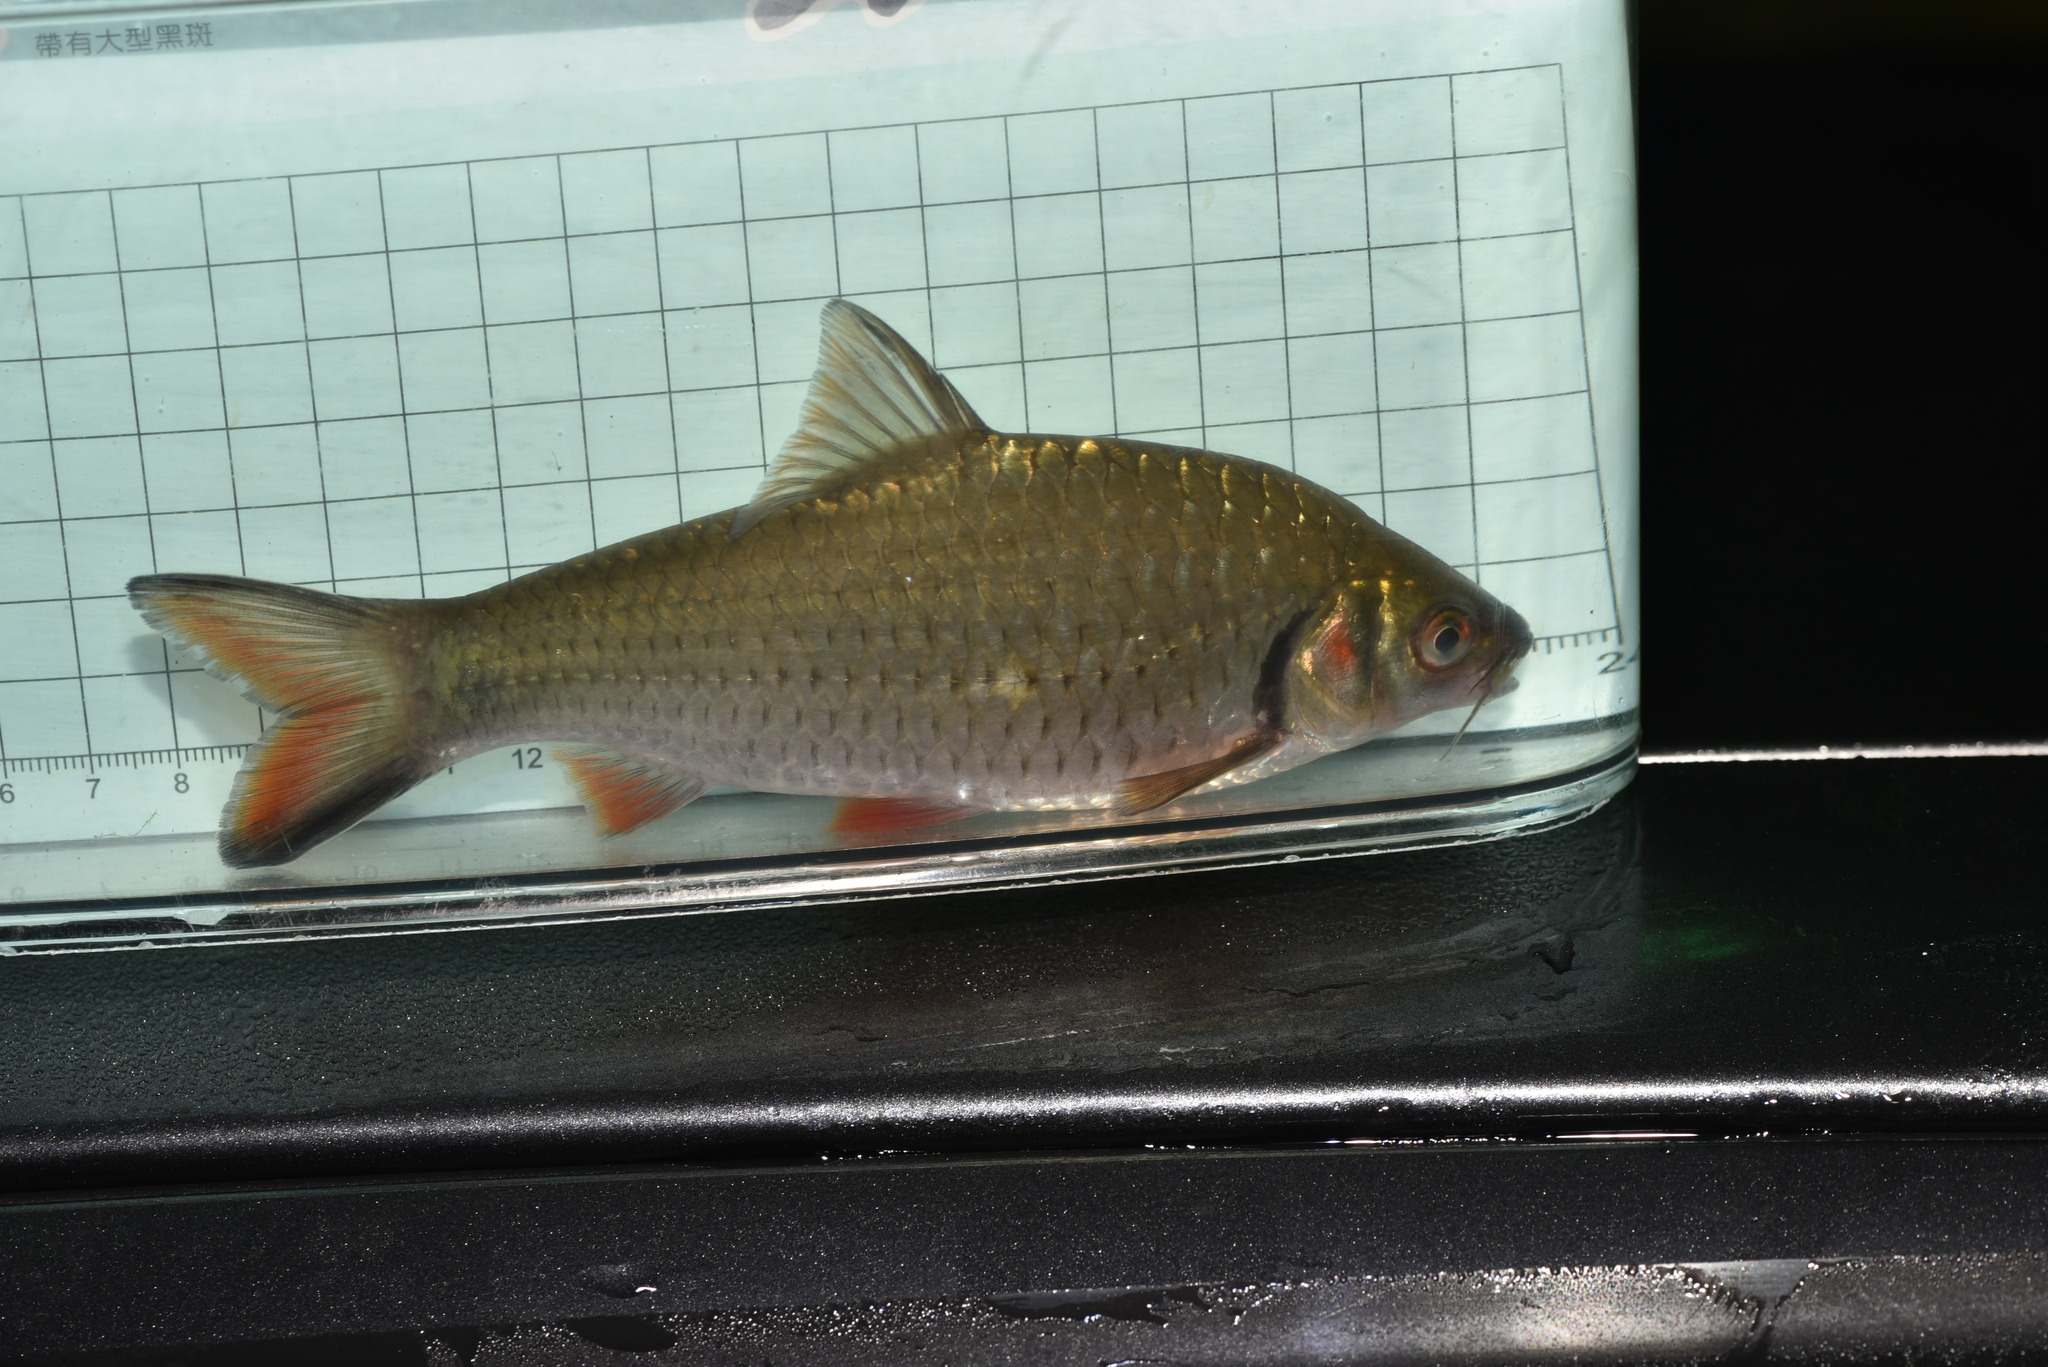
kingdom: Animalia
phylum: Chordata
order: Cypriniformes
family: Cyprinidae
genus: Systomus
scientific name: Systomus orphoides
